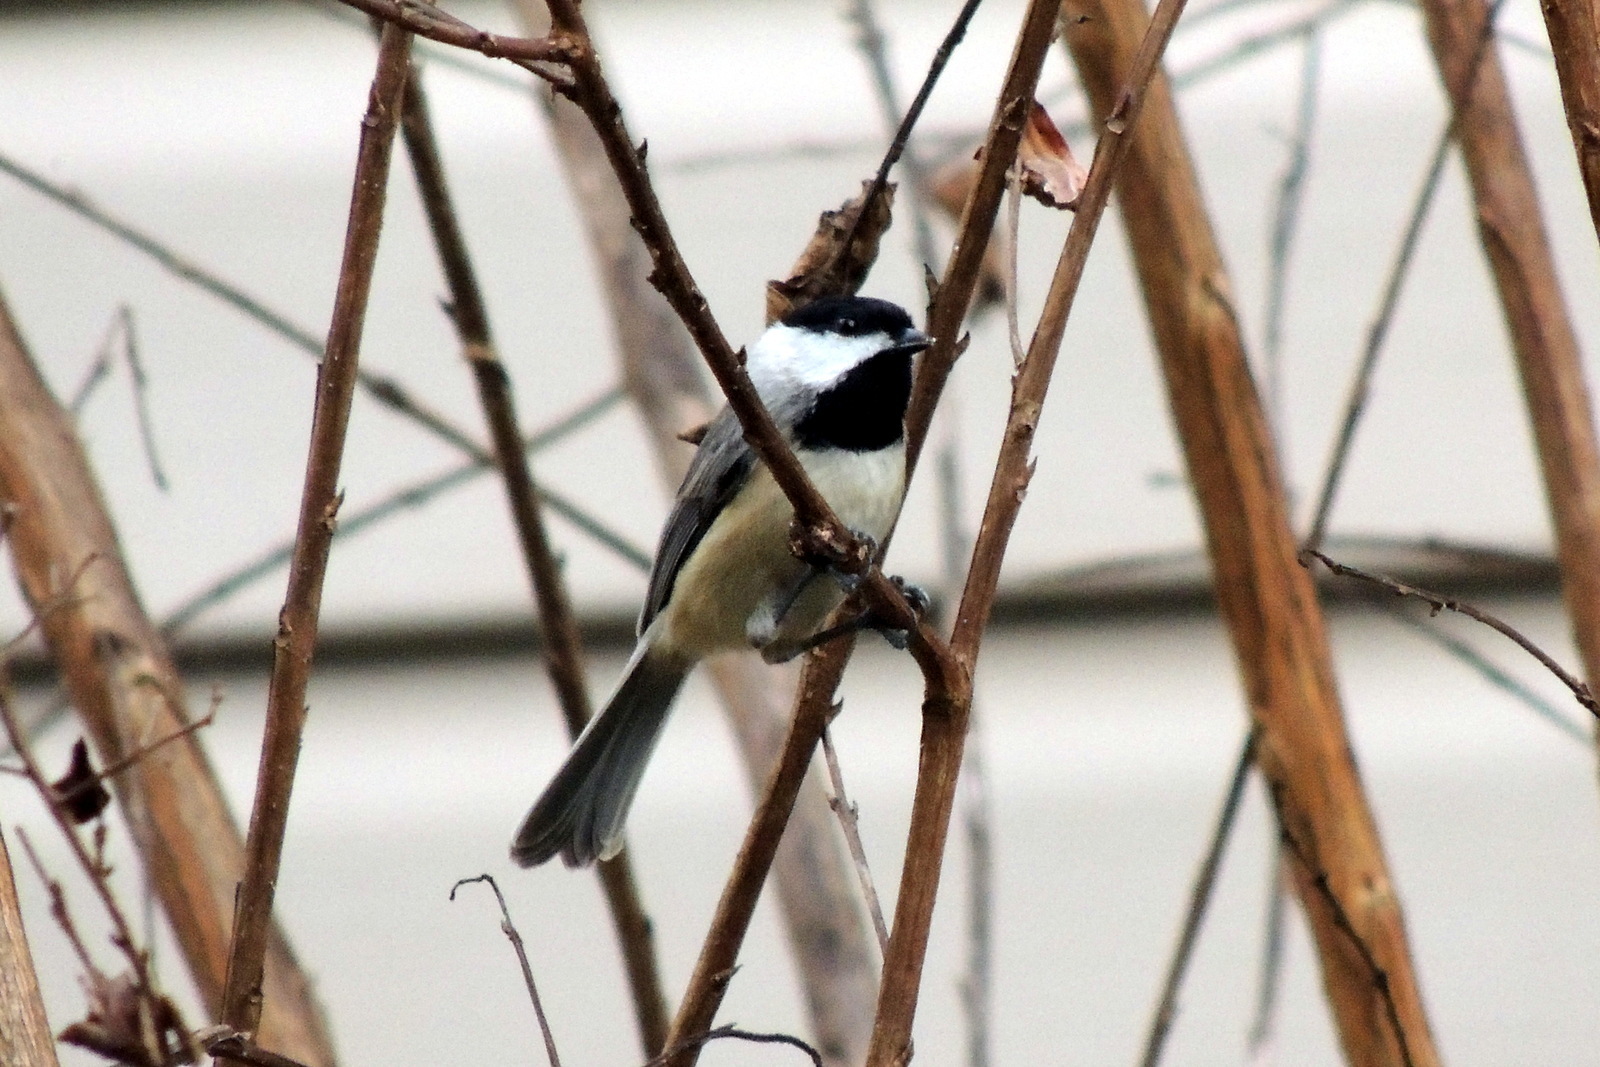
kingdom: Animalia
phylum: Chordata
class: Aves
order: Passeriformes
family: Paridae
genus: Poecile
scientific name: Poecile carolinensis
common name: Carolina chickadee
